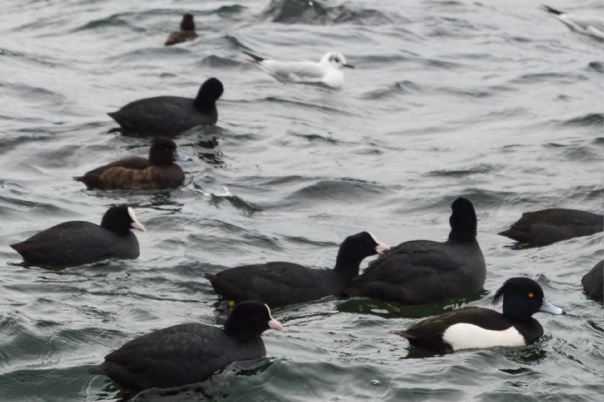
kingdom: Animalia
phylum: Chordata
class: Aves
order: Anseriformes
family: Anatidae
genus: Aythya
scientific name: Aythya fuligula
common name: Tufted duck
